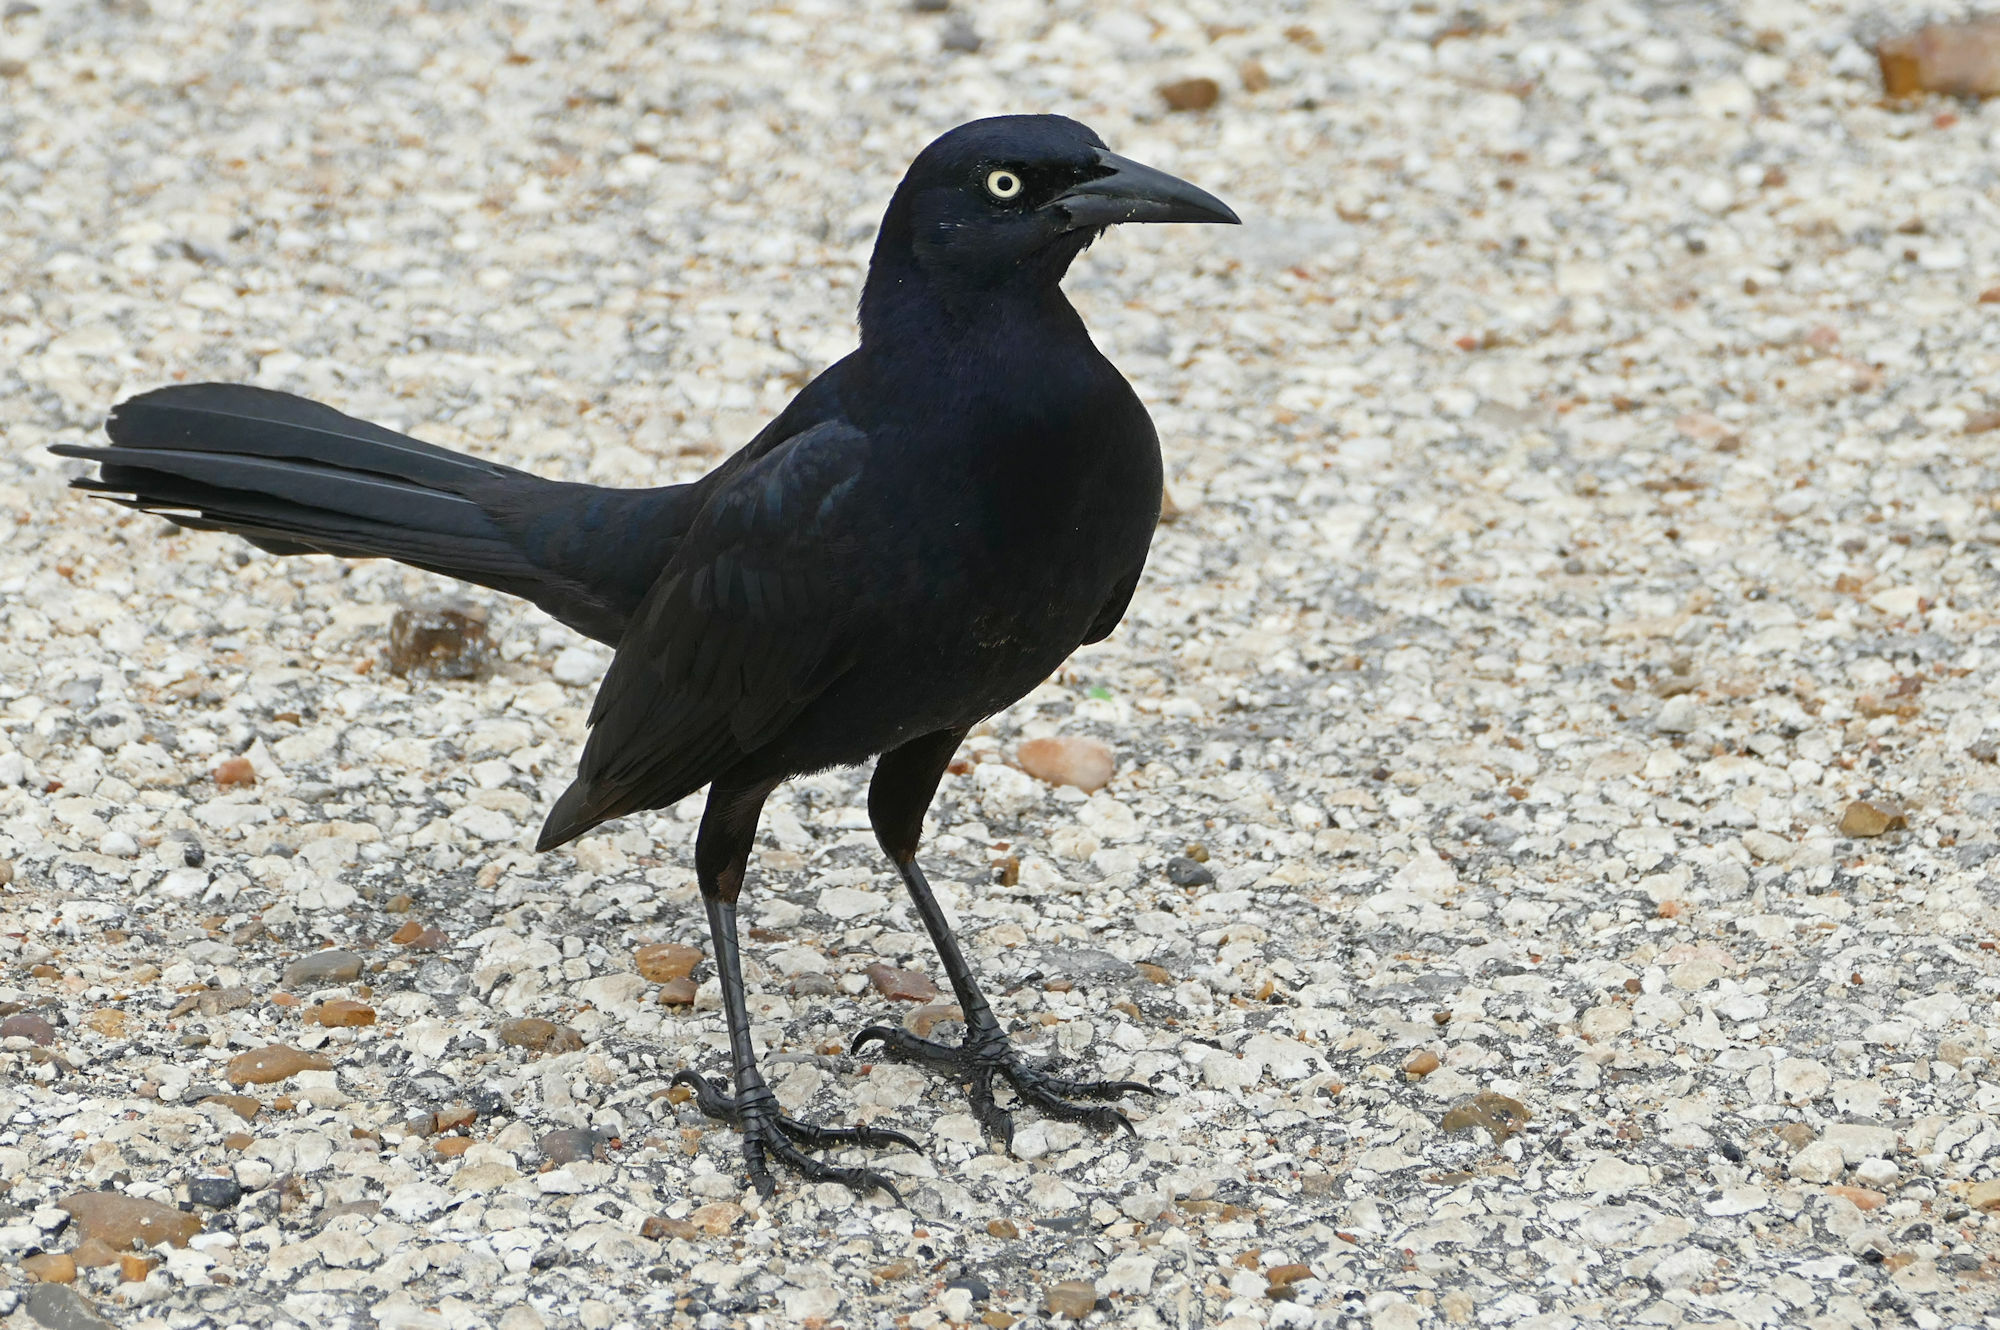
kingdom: Animalia
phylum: Chordata
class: Aves
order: Passeriformes
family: Icteridae
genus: Quiscalus
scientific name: Quiscalus mexicanus
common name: Great-tailed grackle
